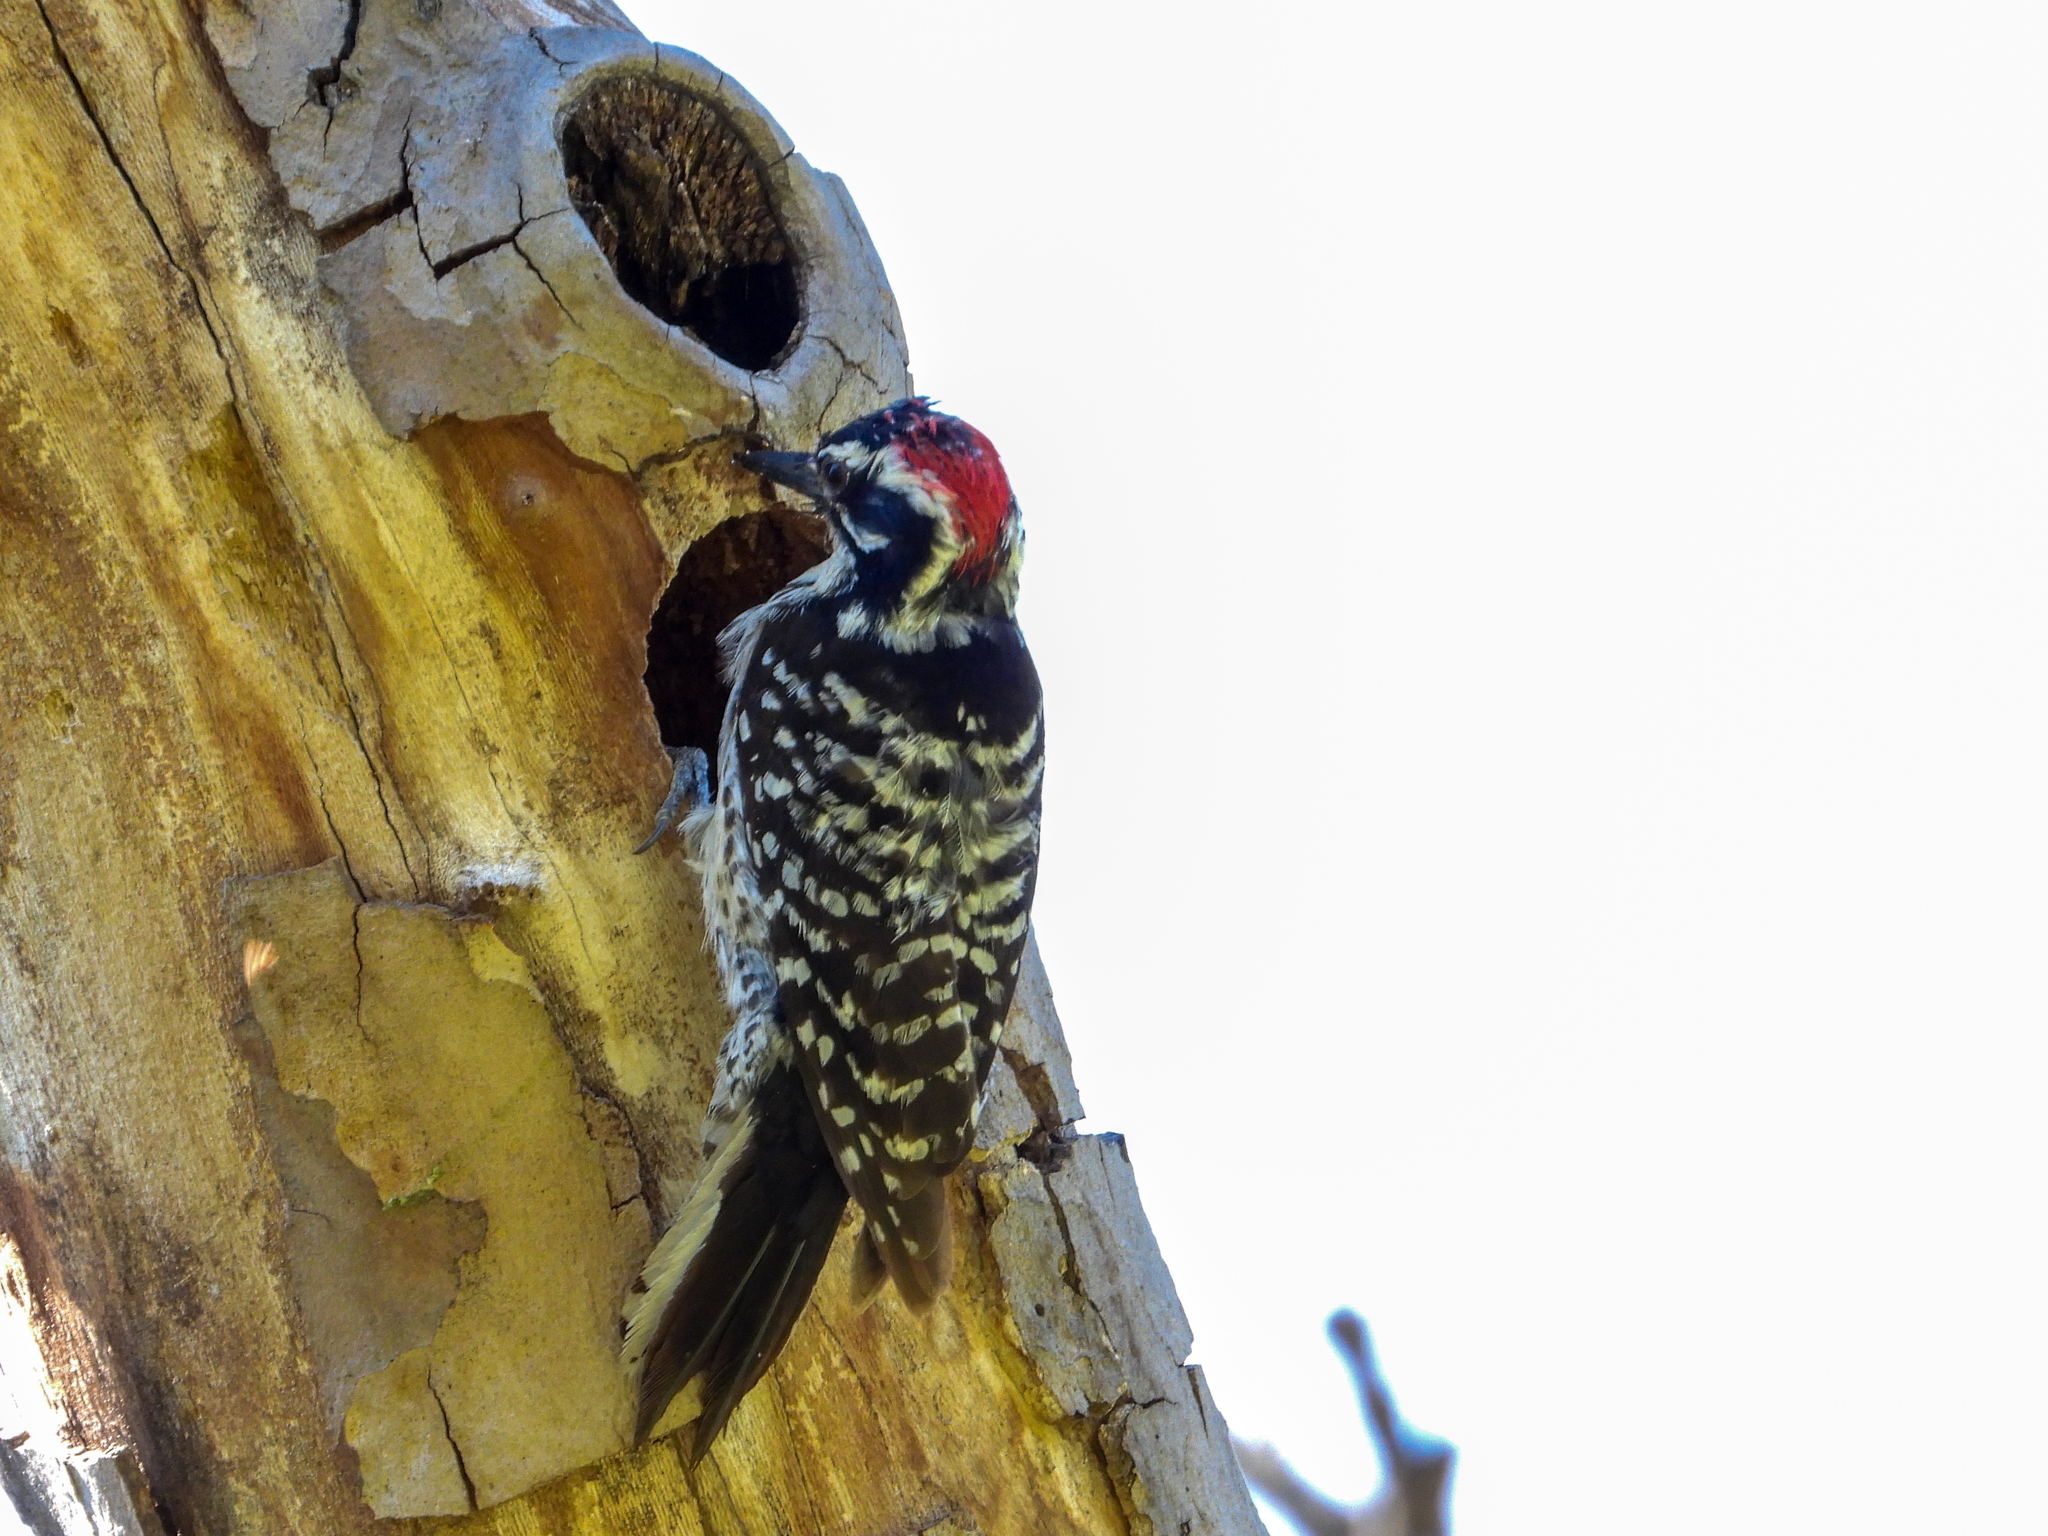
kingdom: Animalia
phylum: Chordata
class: Aves
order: Piciformes
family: Picidae
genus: Dryobates
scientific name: Dryobates nuttallii
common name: Nuttall's woodpecker
